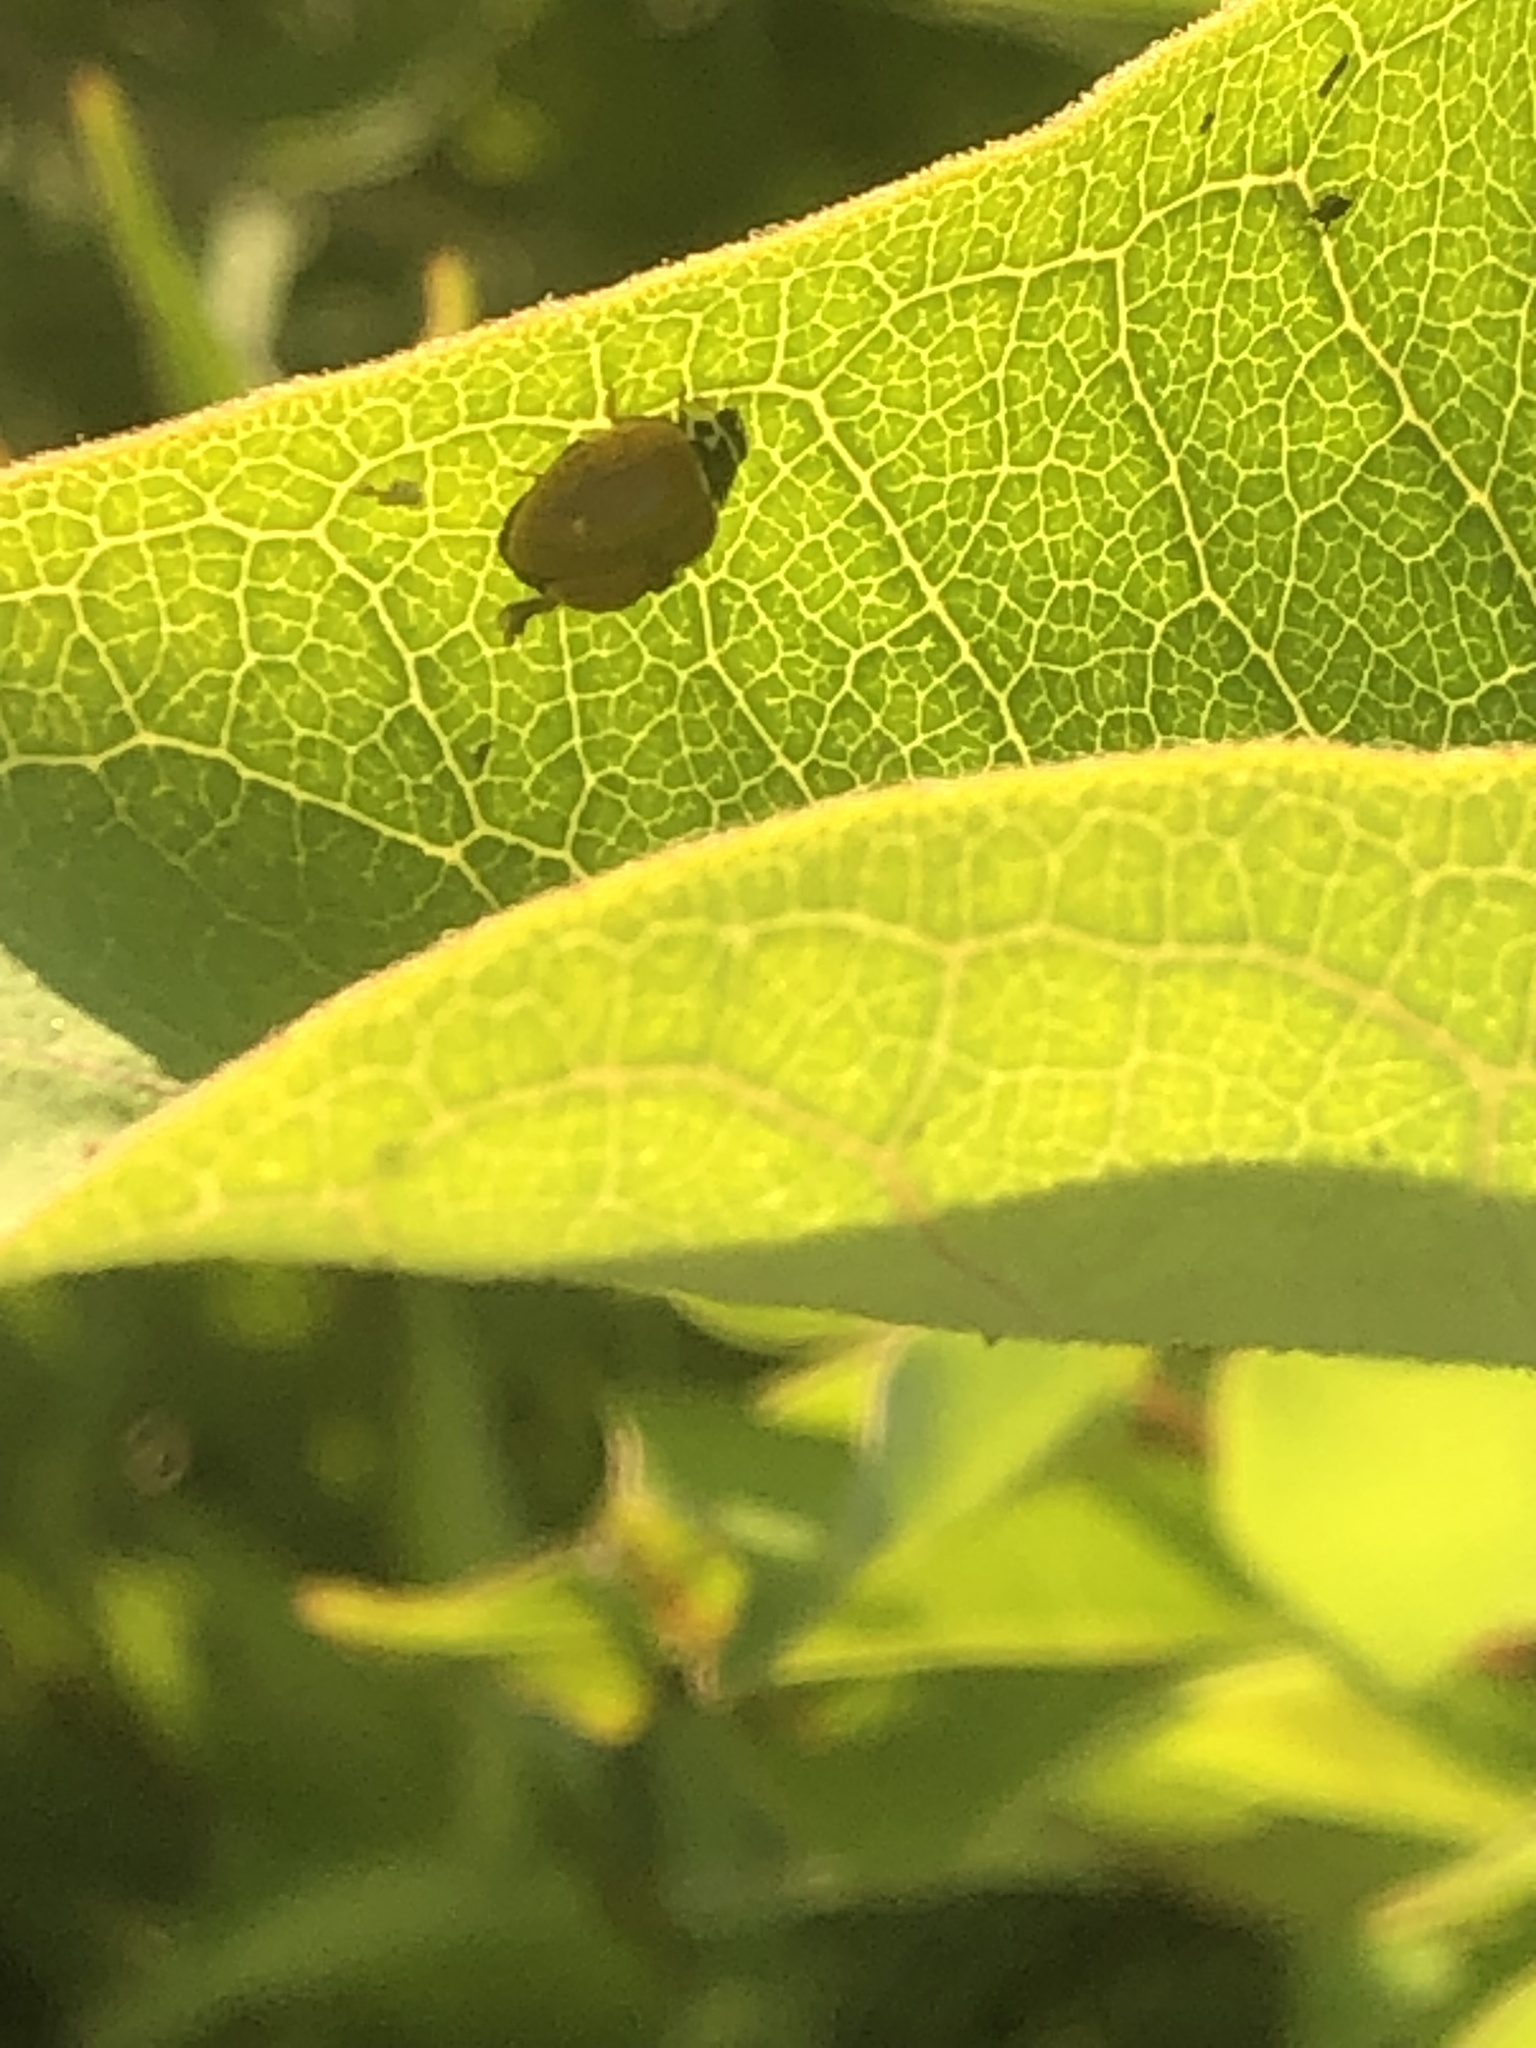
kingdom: Animalia
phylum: Arthropoda
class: Insecta
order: Coleoptera
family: Coccinellidae
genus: Cycloneda
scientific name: Cycloneda munda
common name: Polished lady beetle
